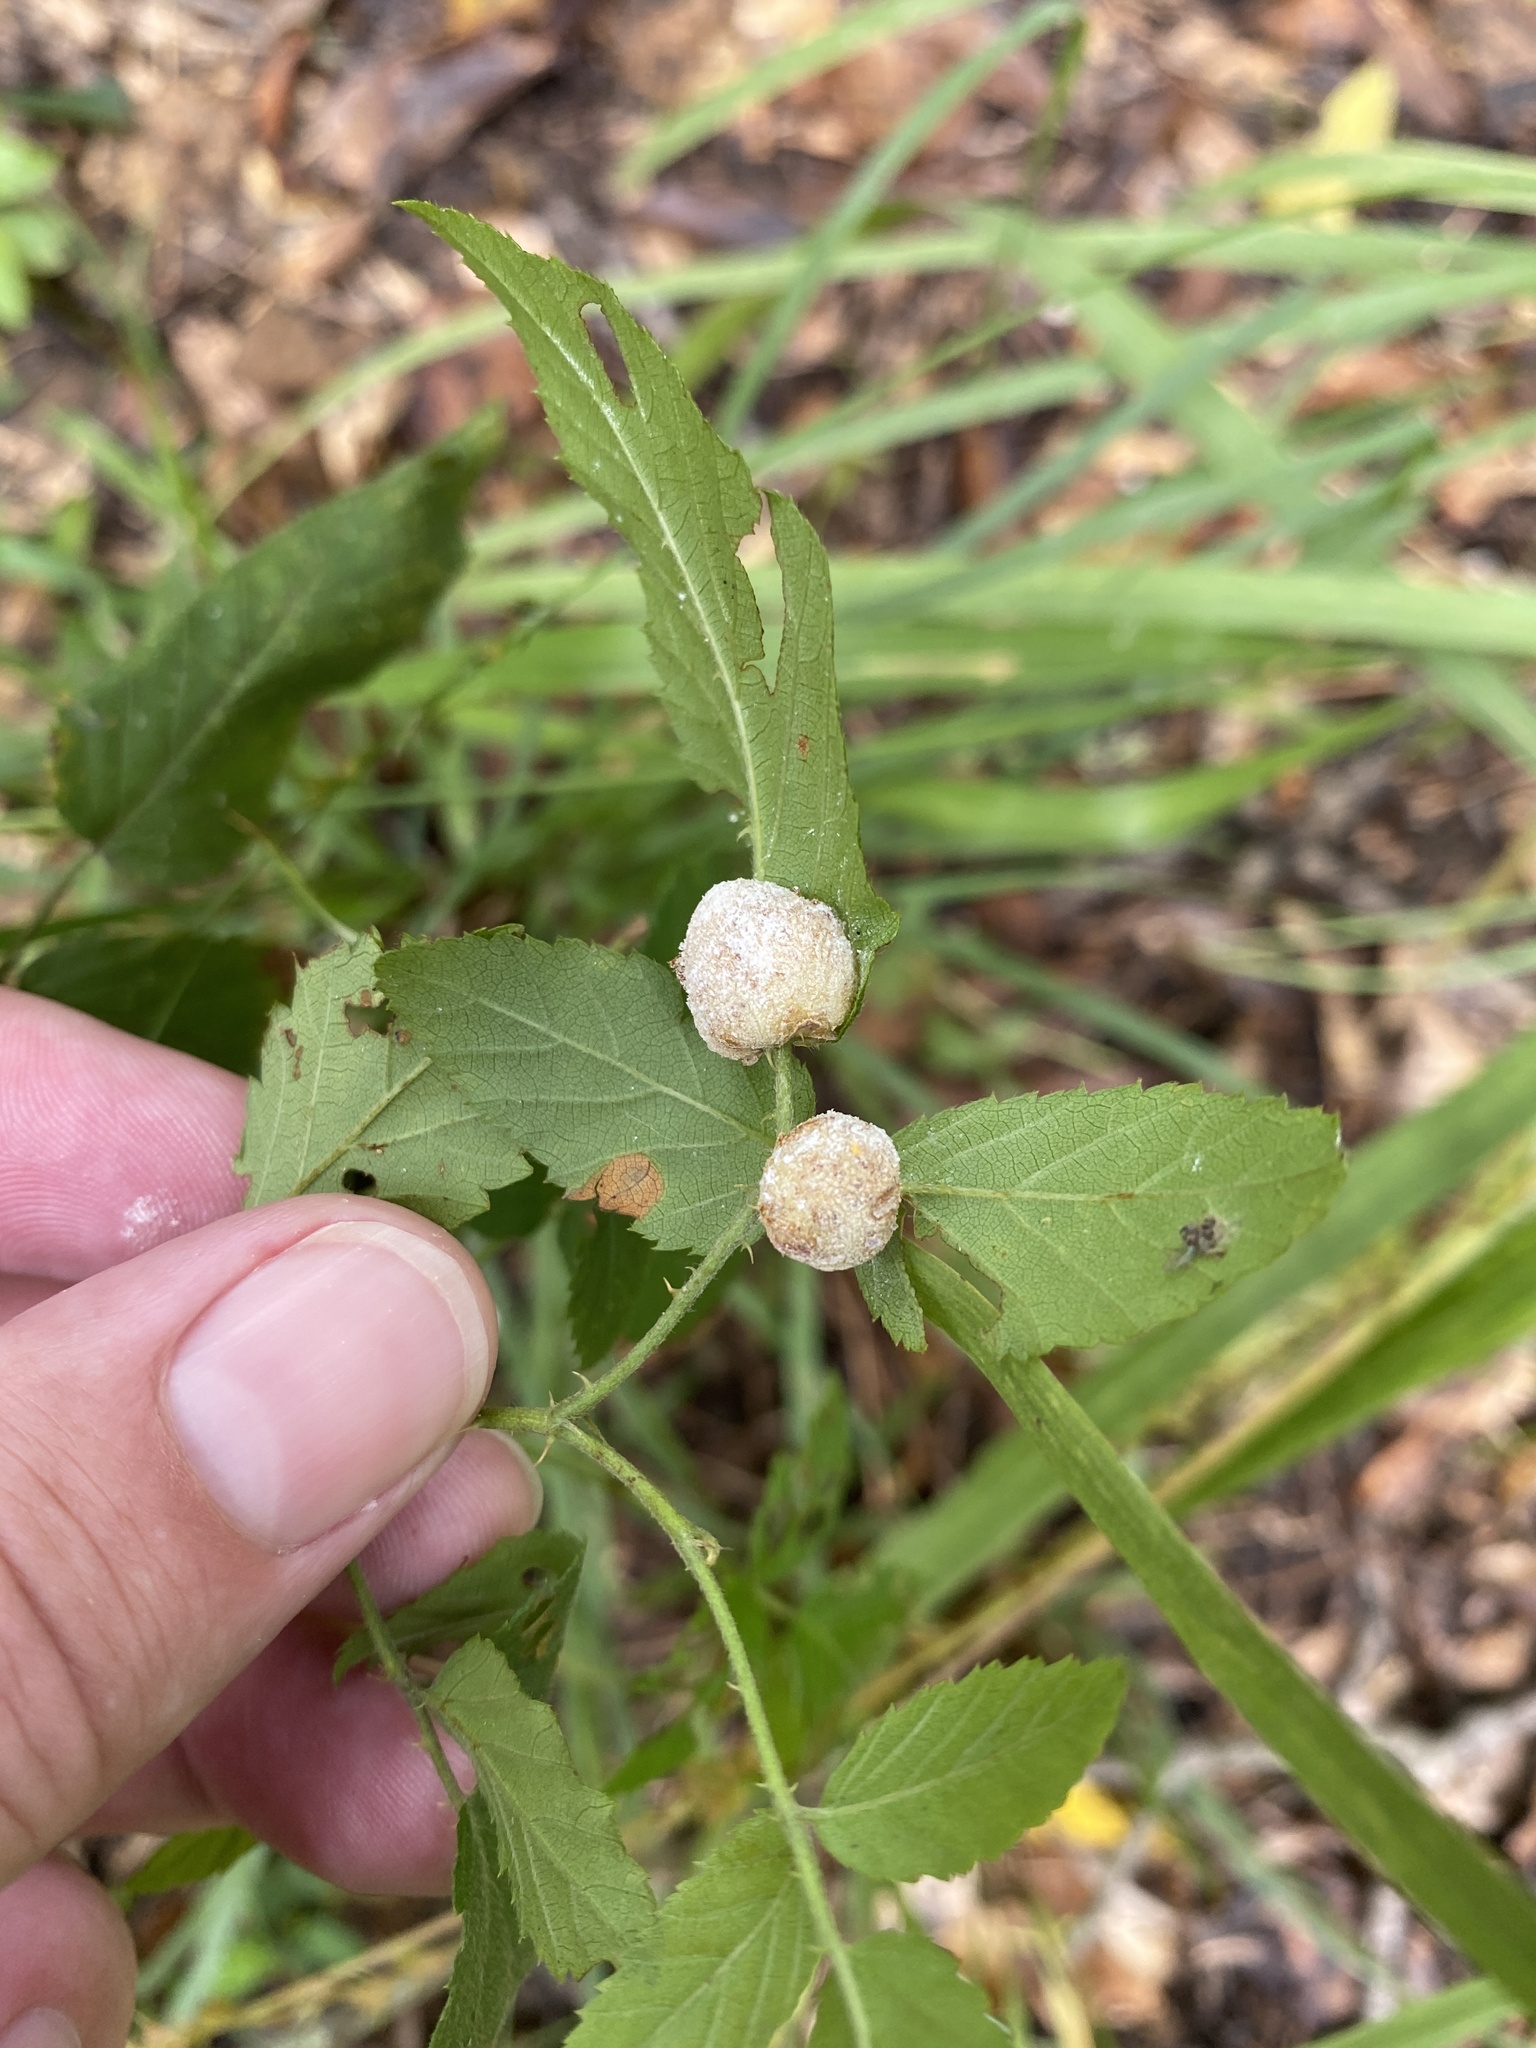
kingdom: Animalia
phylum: Arthropoda
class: Insecta
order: Diptera
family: Cecidomyiidae
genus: Neolasioptera
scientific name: Neolasioptera farinosa
